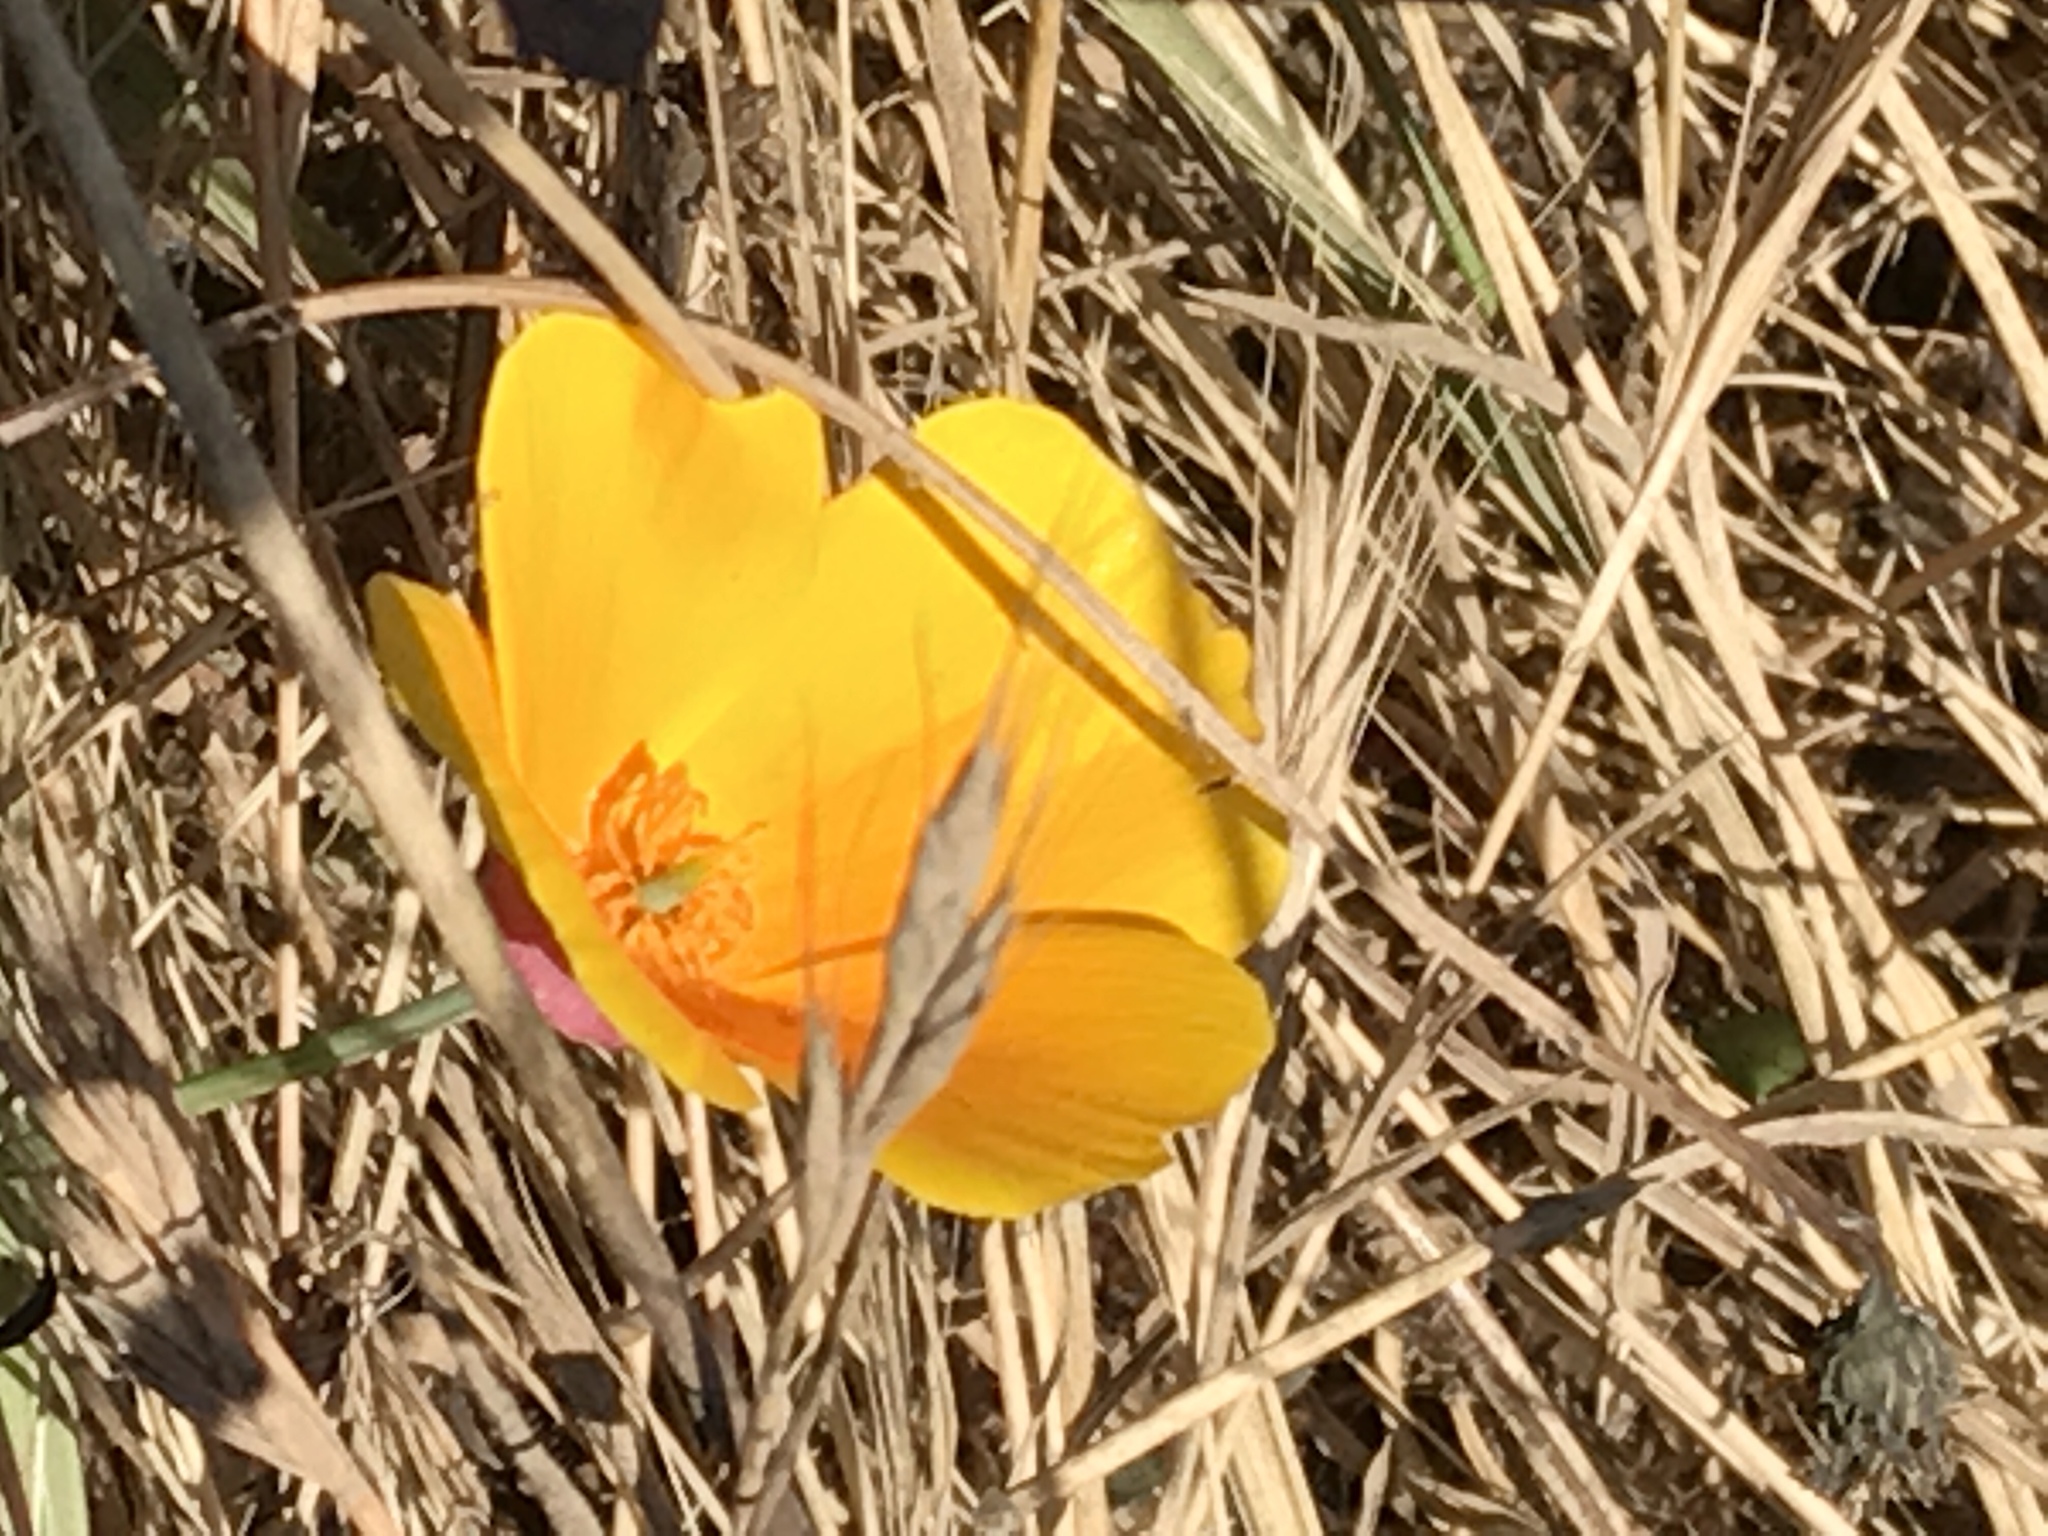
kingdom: Plantae
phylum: Tracheophyta
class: Magnoliopsida
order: Ranunculales
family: Papaveraceae
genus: Eschscholzia
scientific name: Eschscholzia californica
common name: California poppy
